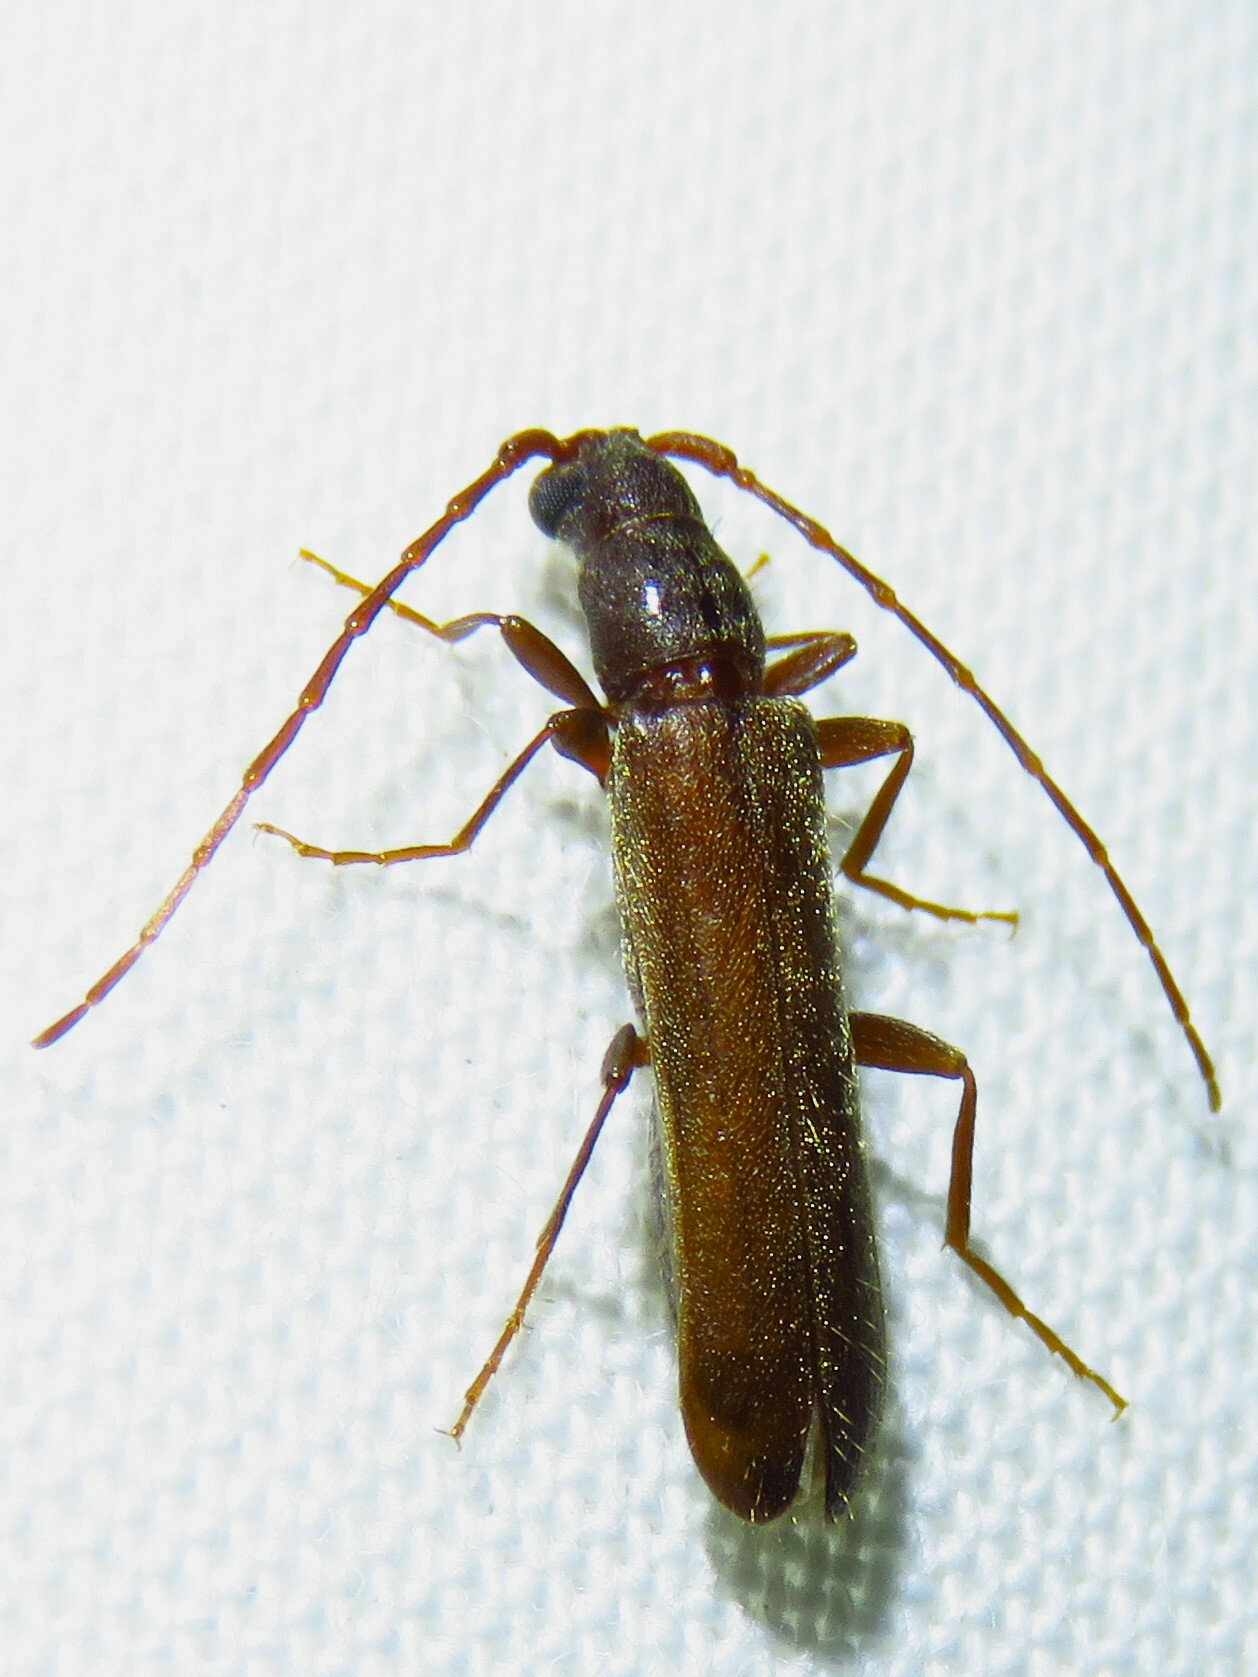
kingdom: Animalia
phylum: Arthropoda
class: Insecta
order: Coleoptera
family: Cerambycidae
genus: Haplidus
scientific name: Haplidus laticeps
